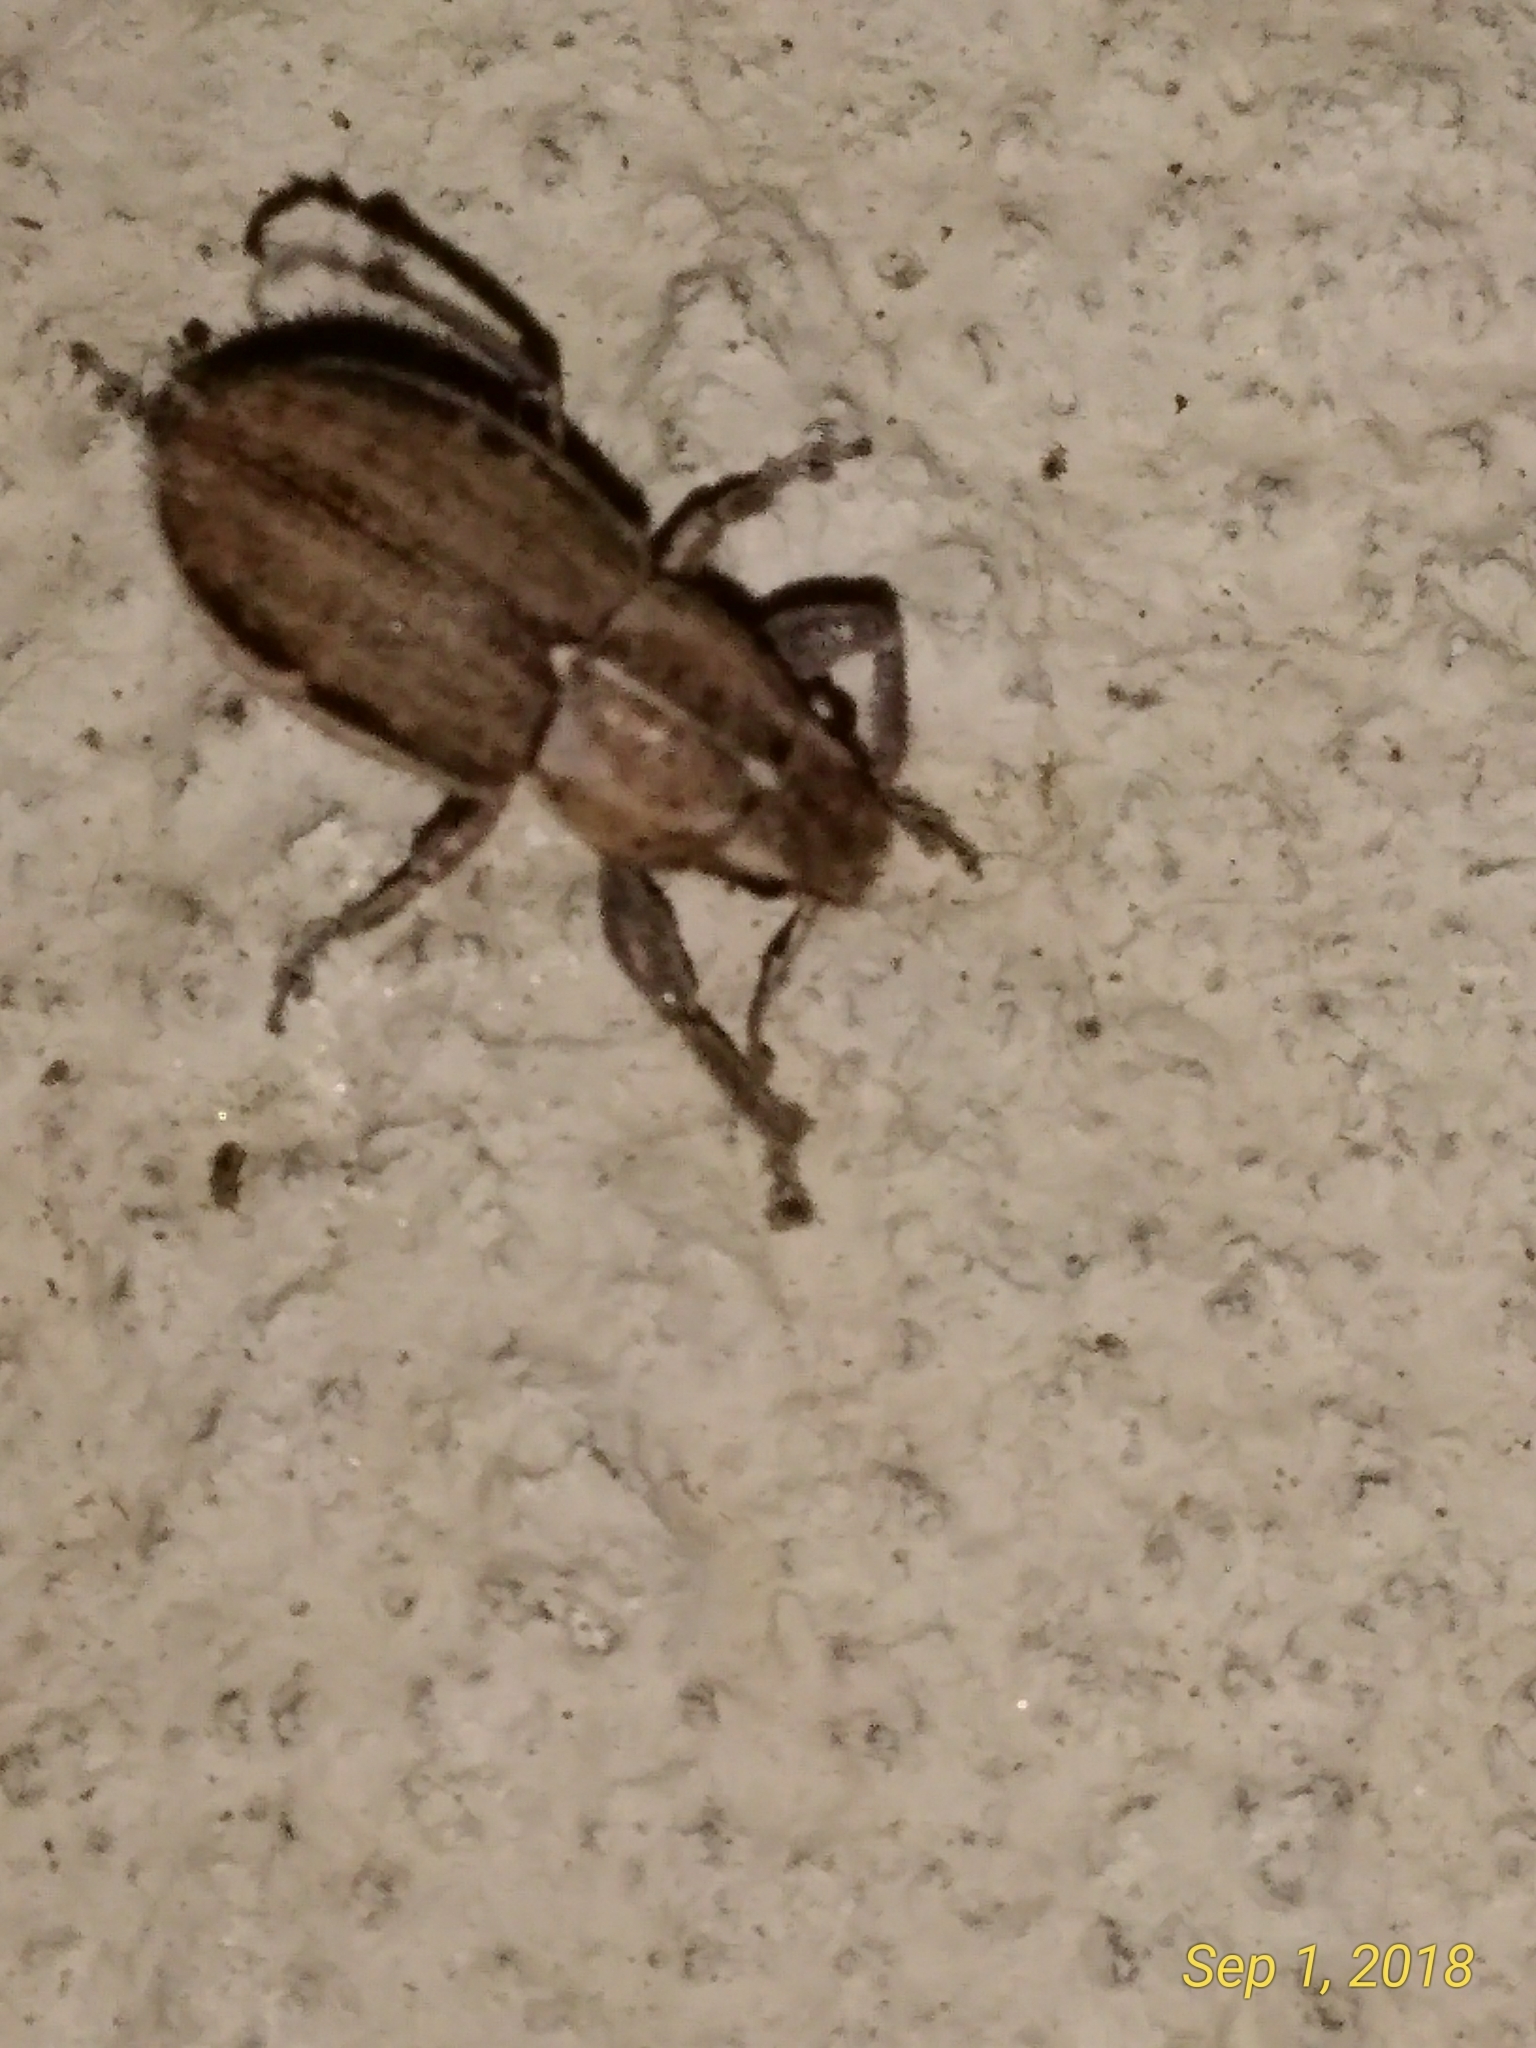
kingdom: Animalia
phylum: Arthropoda
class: Insecta
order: Coleoptera
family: Curculionidae
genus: Naupactus
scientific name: Naupactus peregrinus
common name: Whitefringed beetle
